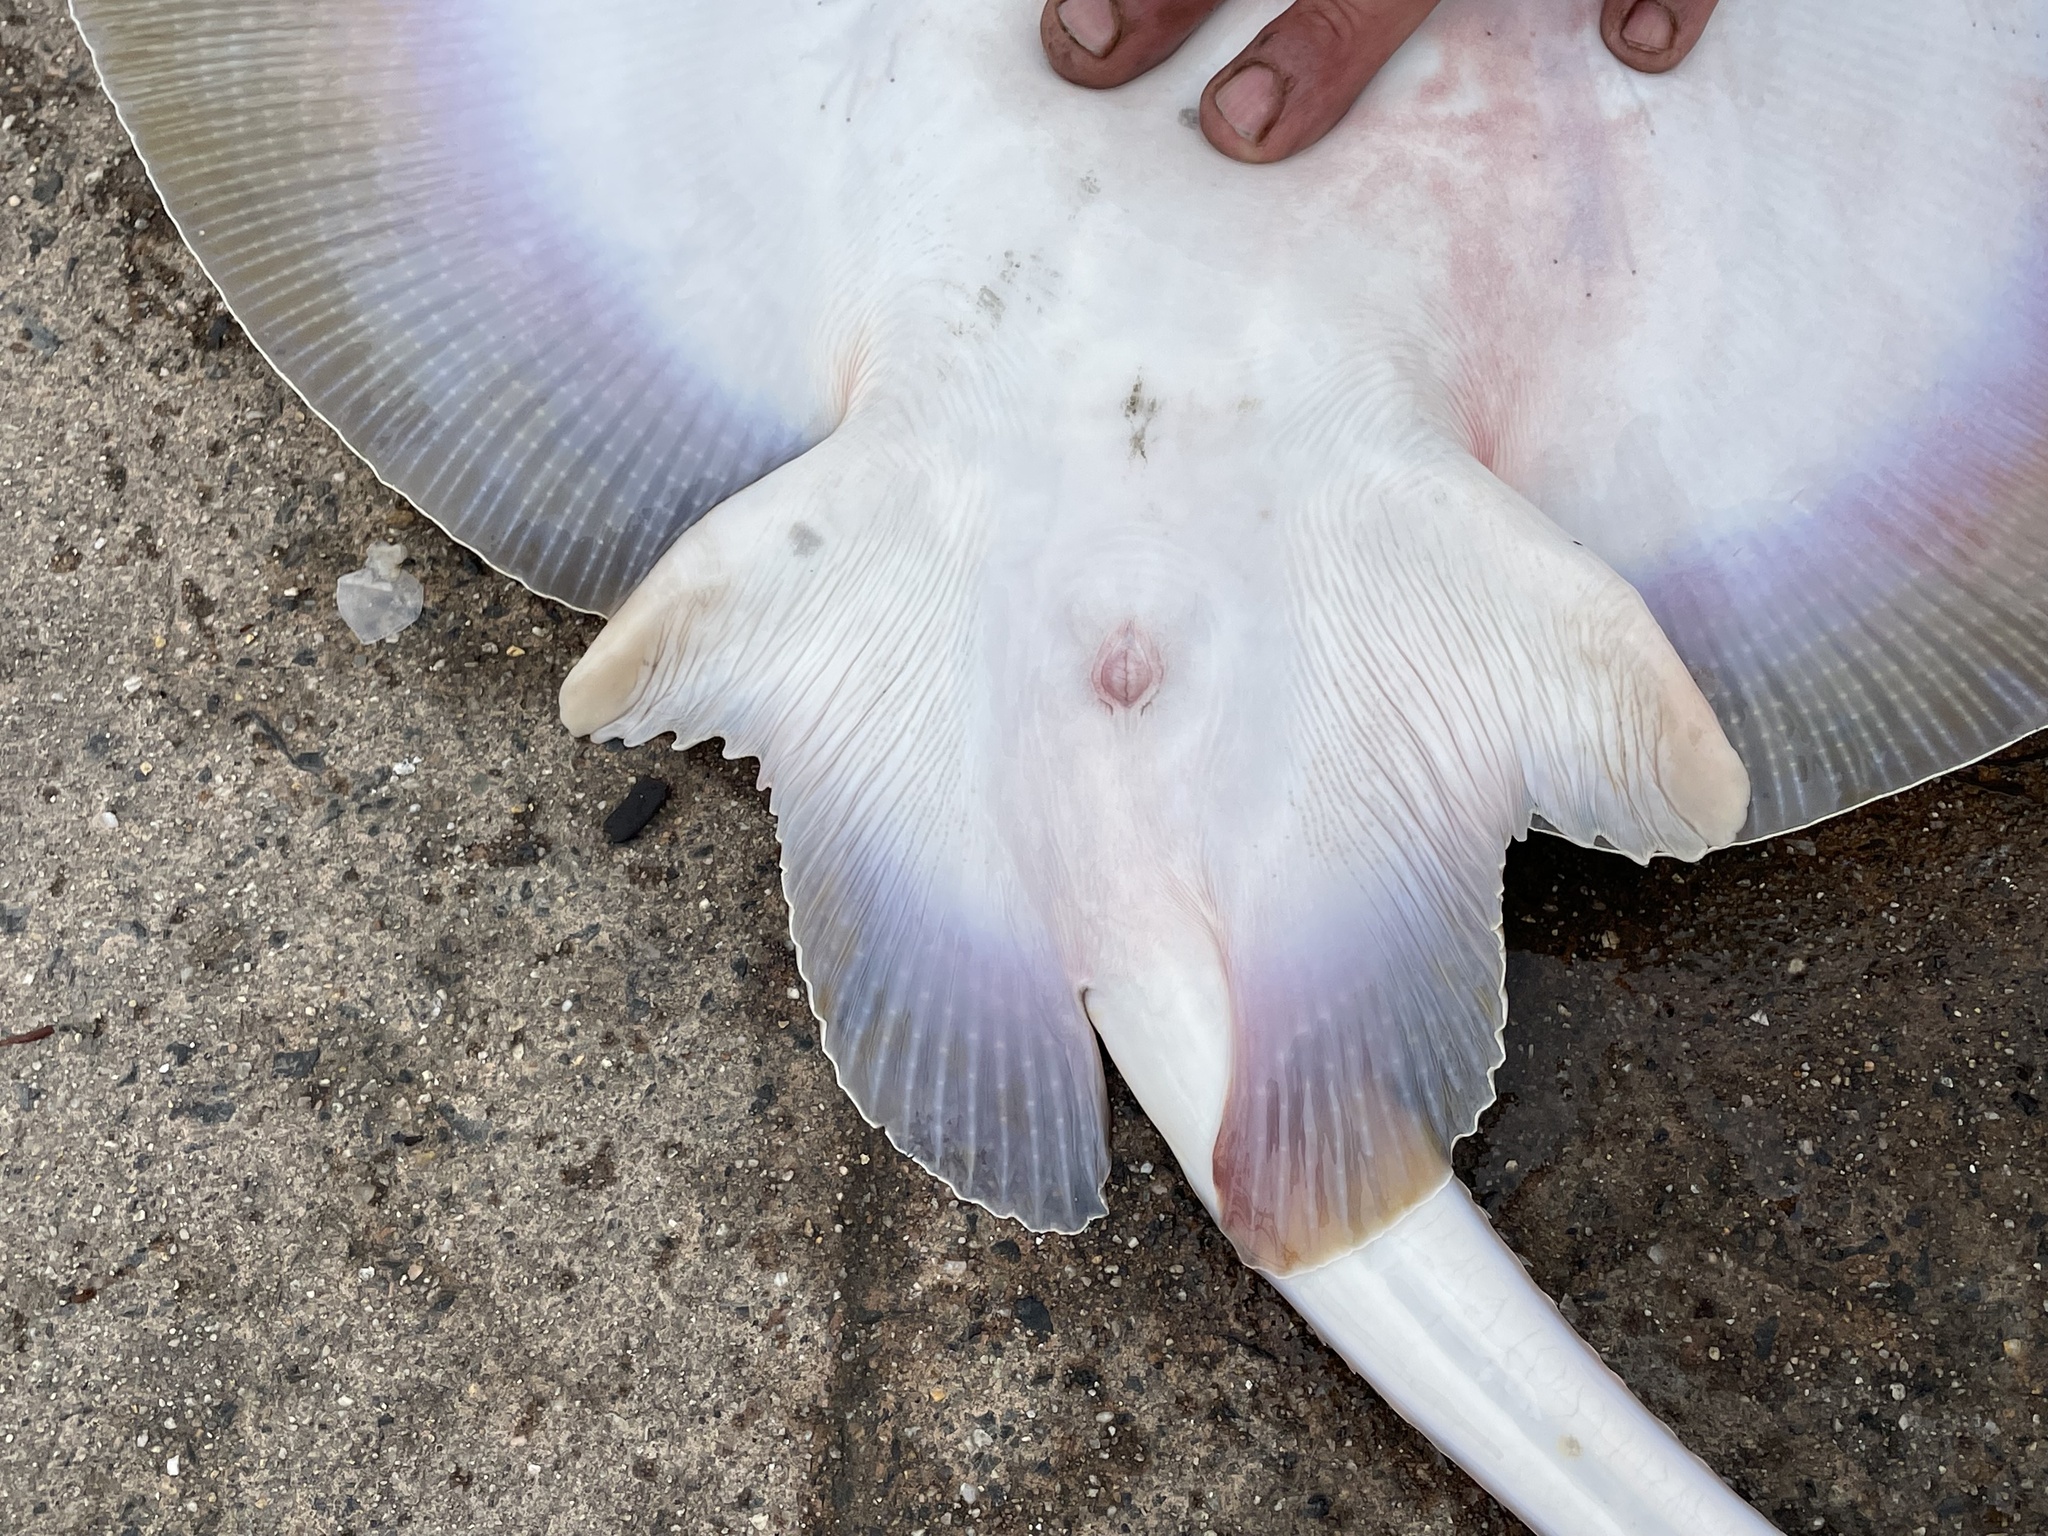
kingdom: Animalia
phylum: Chordata
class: Elasmobranchii
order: Rajiformes
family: Rajidae
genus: Raja
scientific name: Raja eglanteria
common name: Clearnose skate
